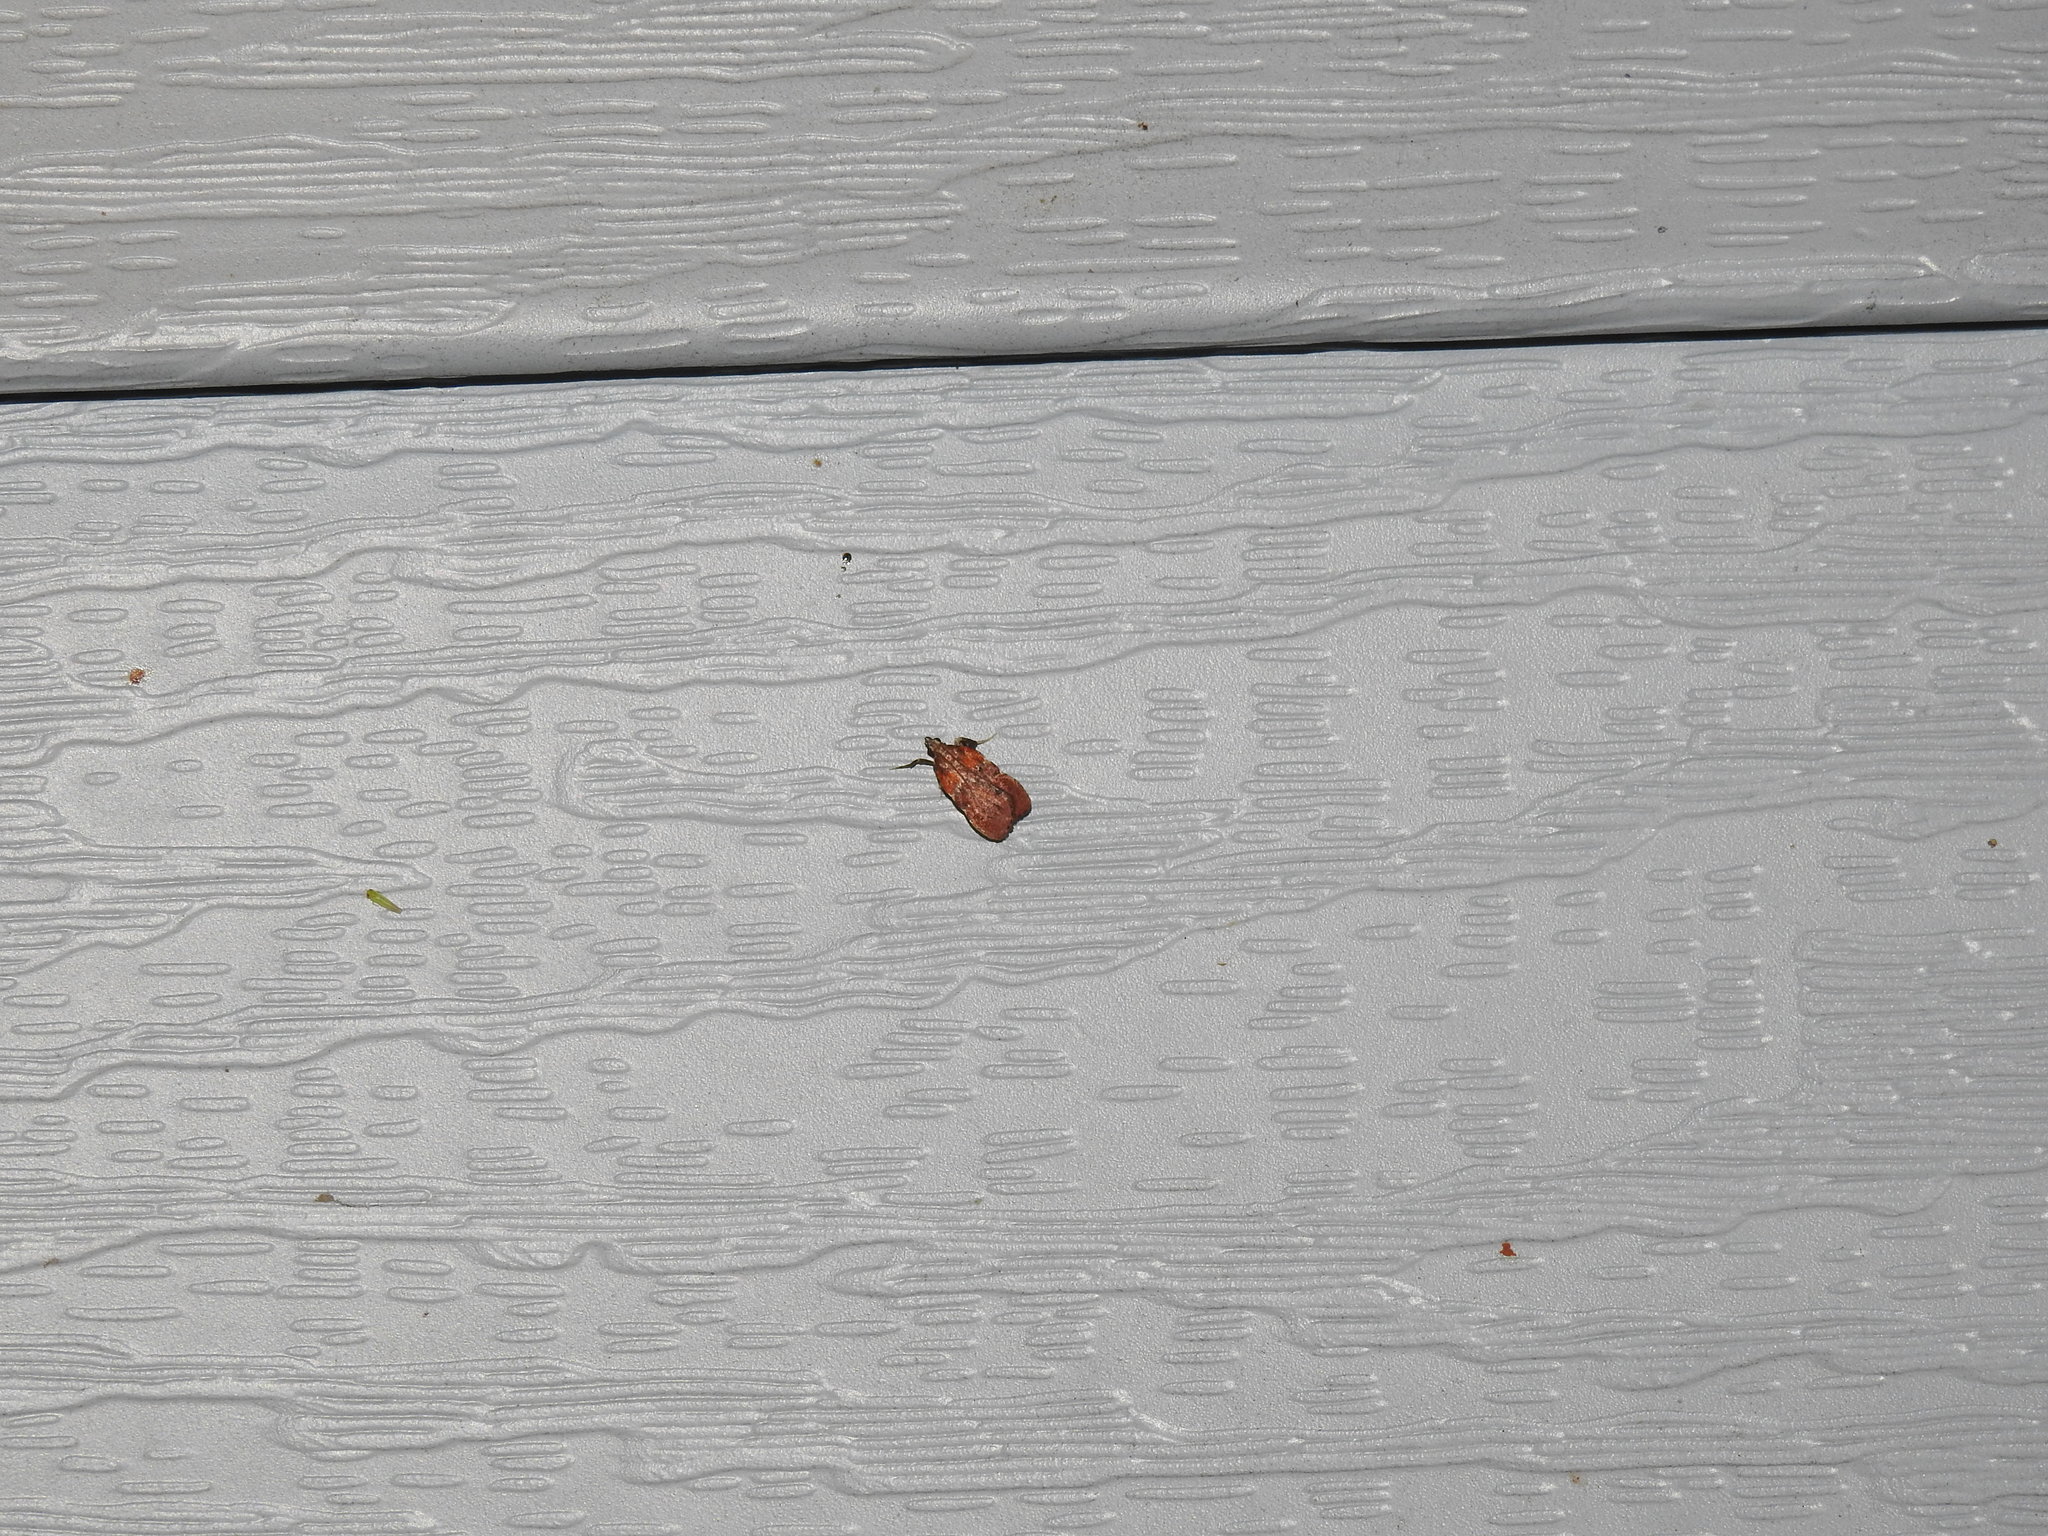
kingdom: Animalia
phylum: Arthropoda
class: Insecta
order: Lepidoptera
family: Pyralidae
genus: Galasa
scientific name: Galasa nigrinodis
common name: Boxwood leaftier moth
